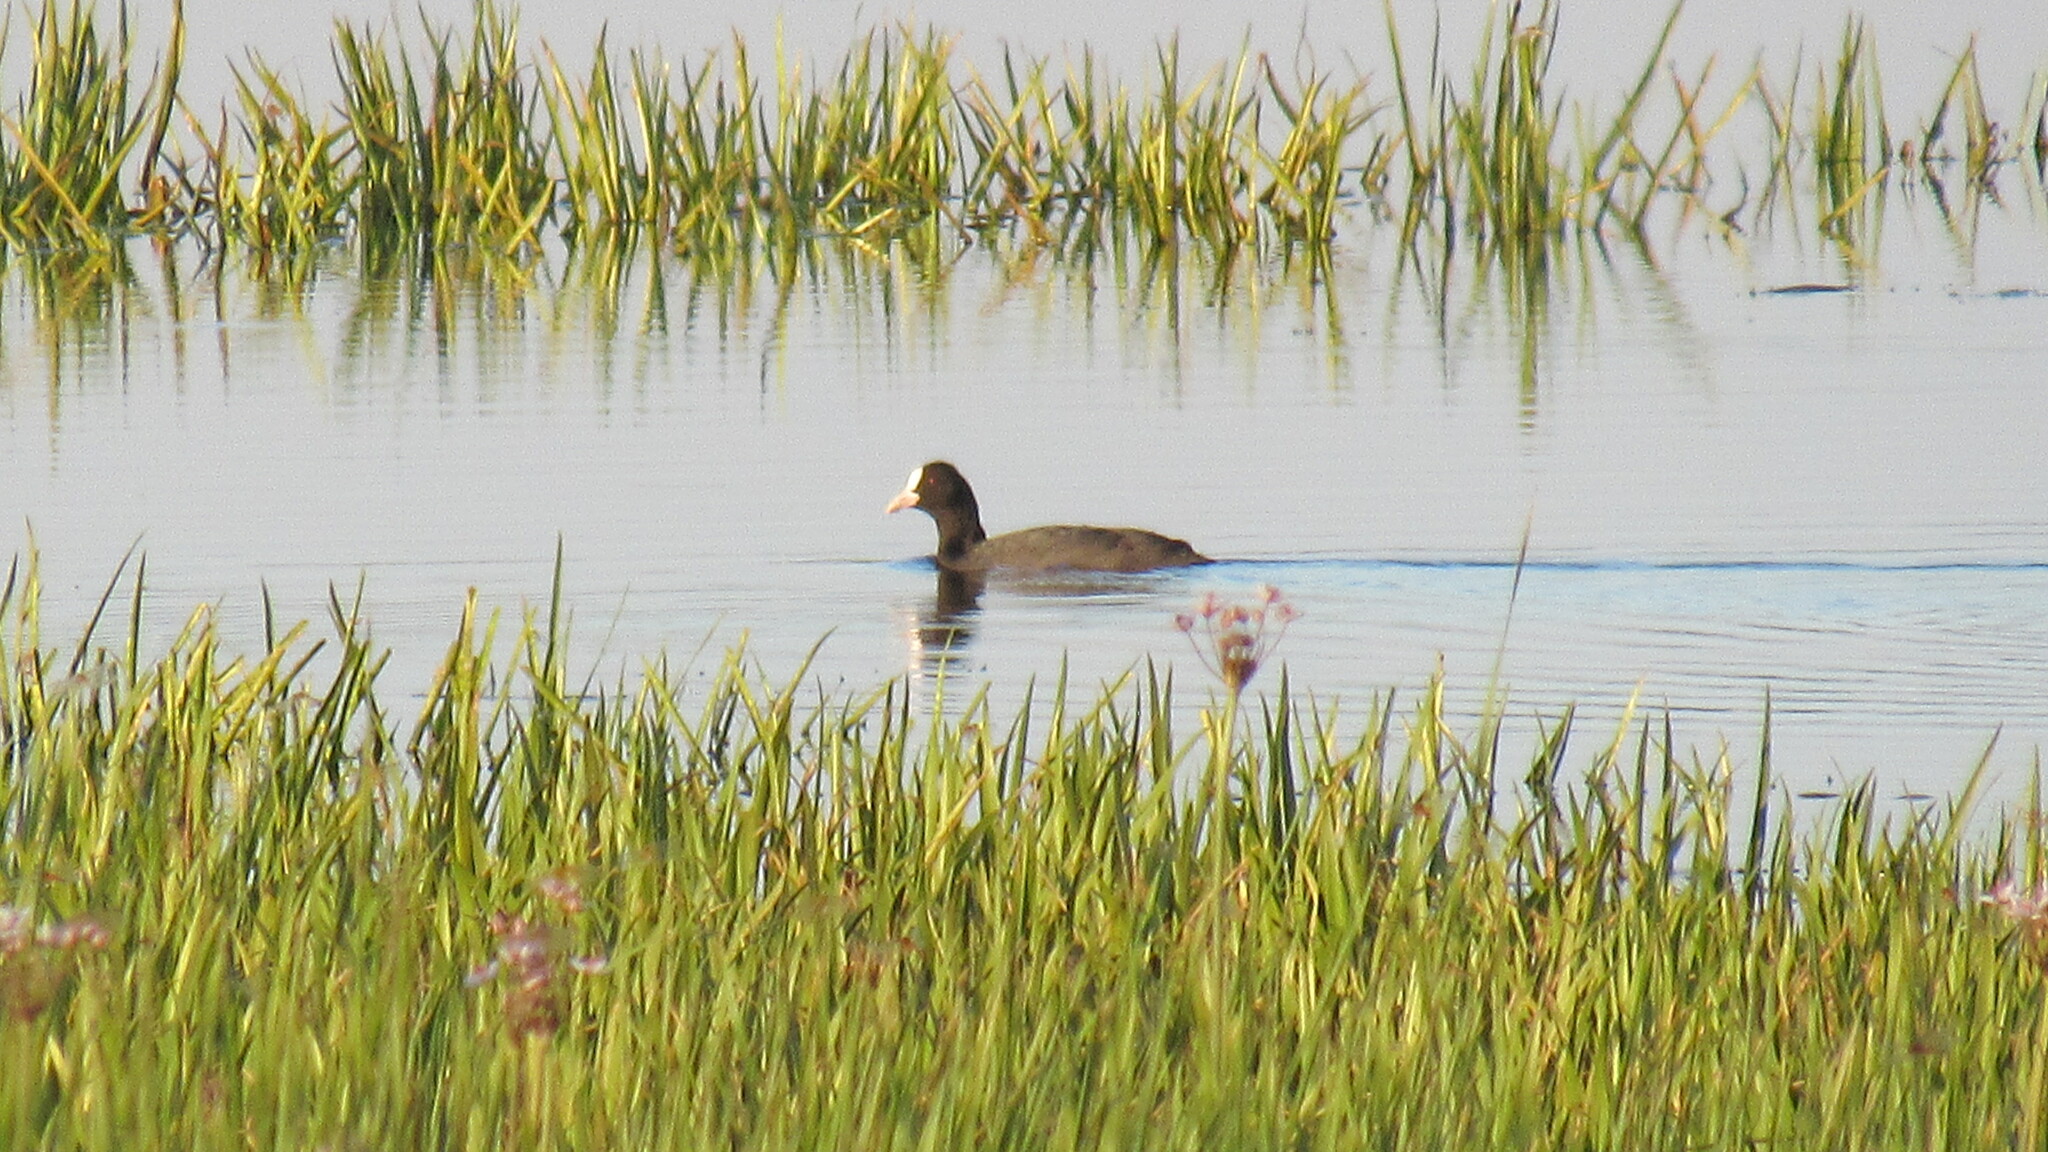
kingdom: Animalia
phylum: Chordata
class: Aves
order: Gruiformes
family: Rallidae
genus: Fulica
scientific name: Fulica atra
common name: Eurasian coot
